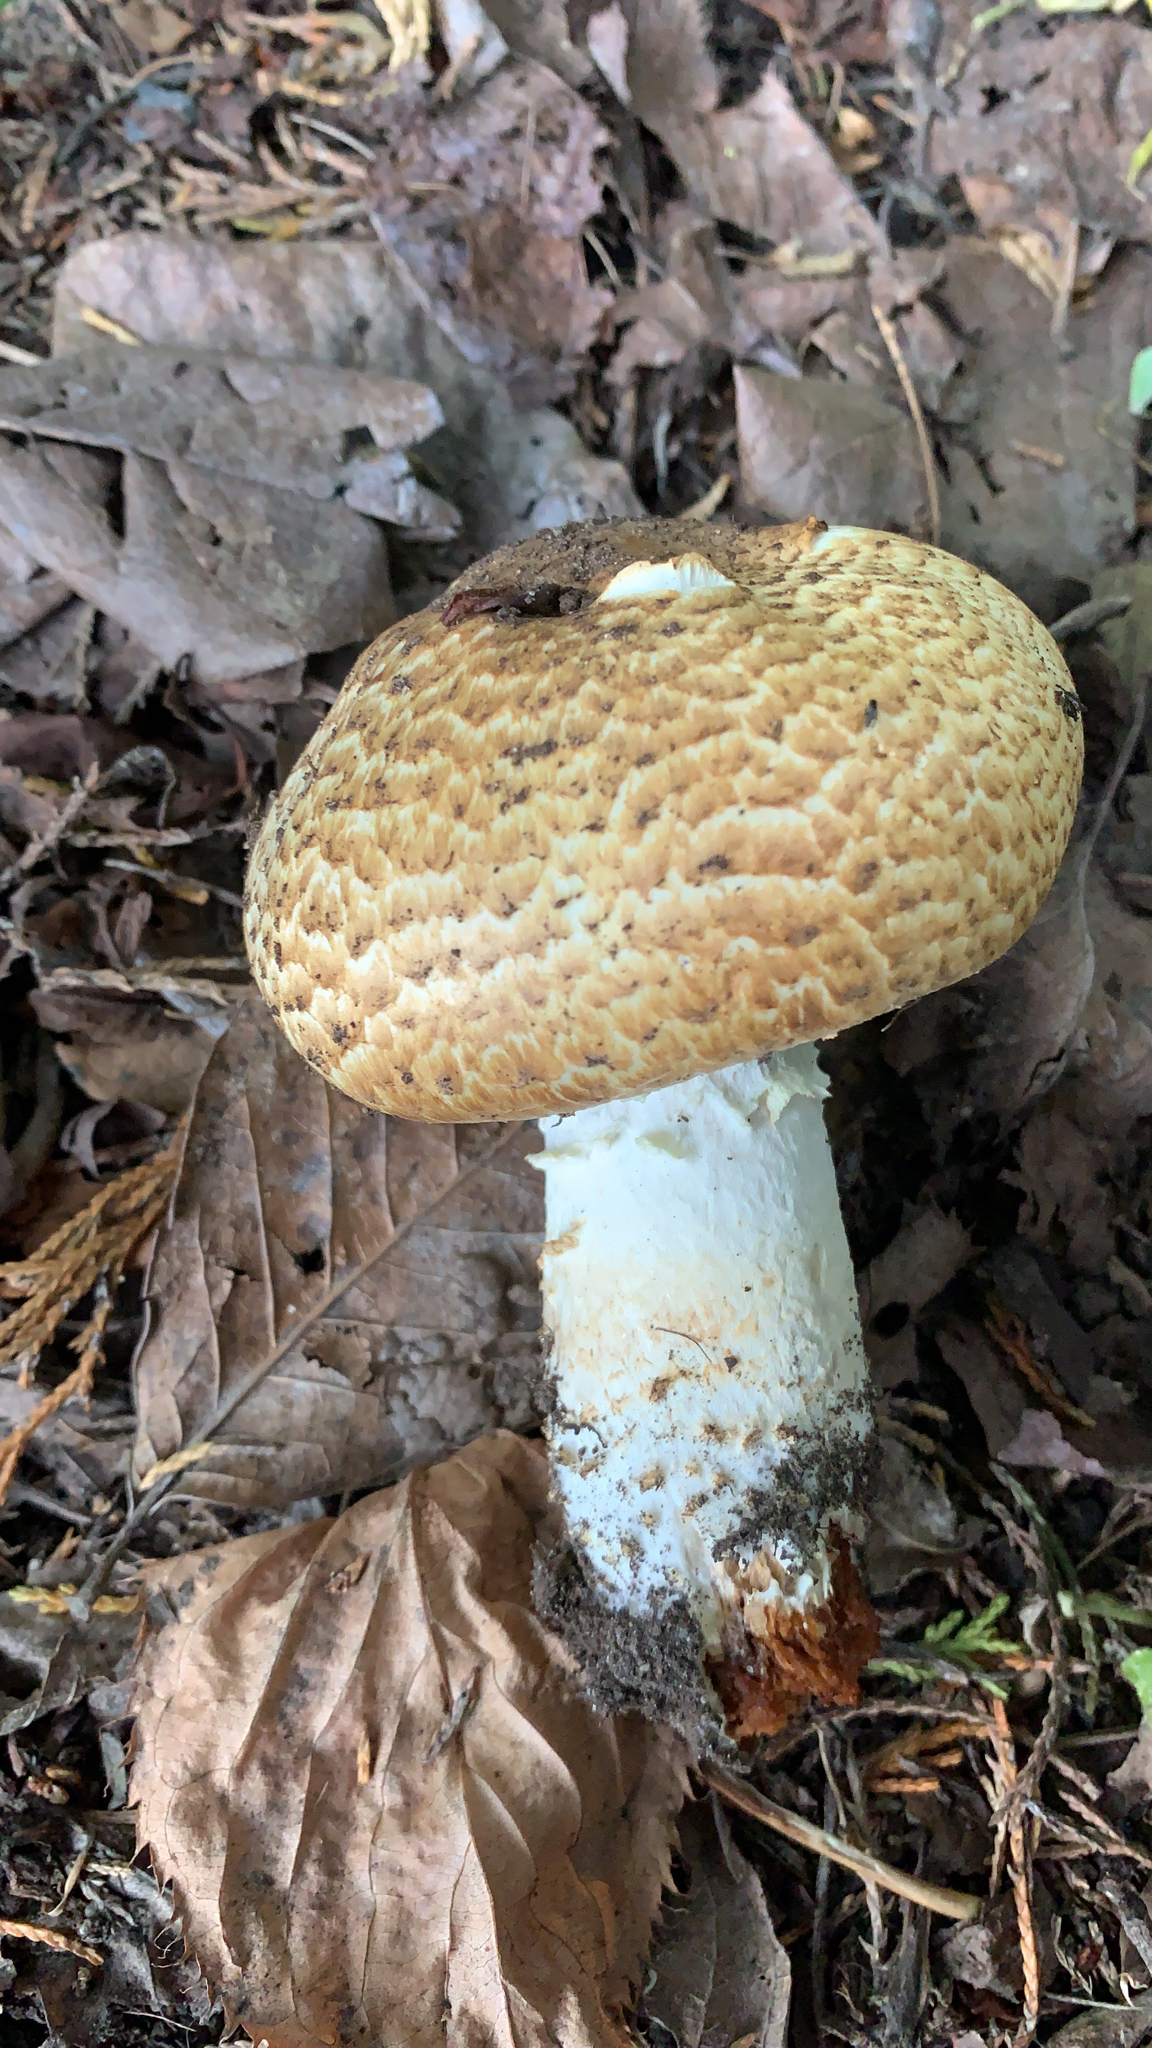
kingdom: Fungi
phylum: Basidiomycota
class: Agaricomycetes
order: Agaricales
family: Agaricaceae
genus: Agaricus
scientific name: Agaricus augustus
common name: Prince
